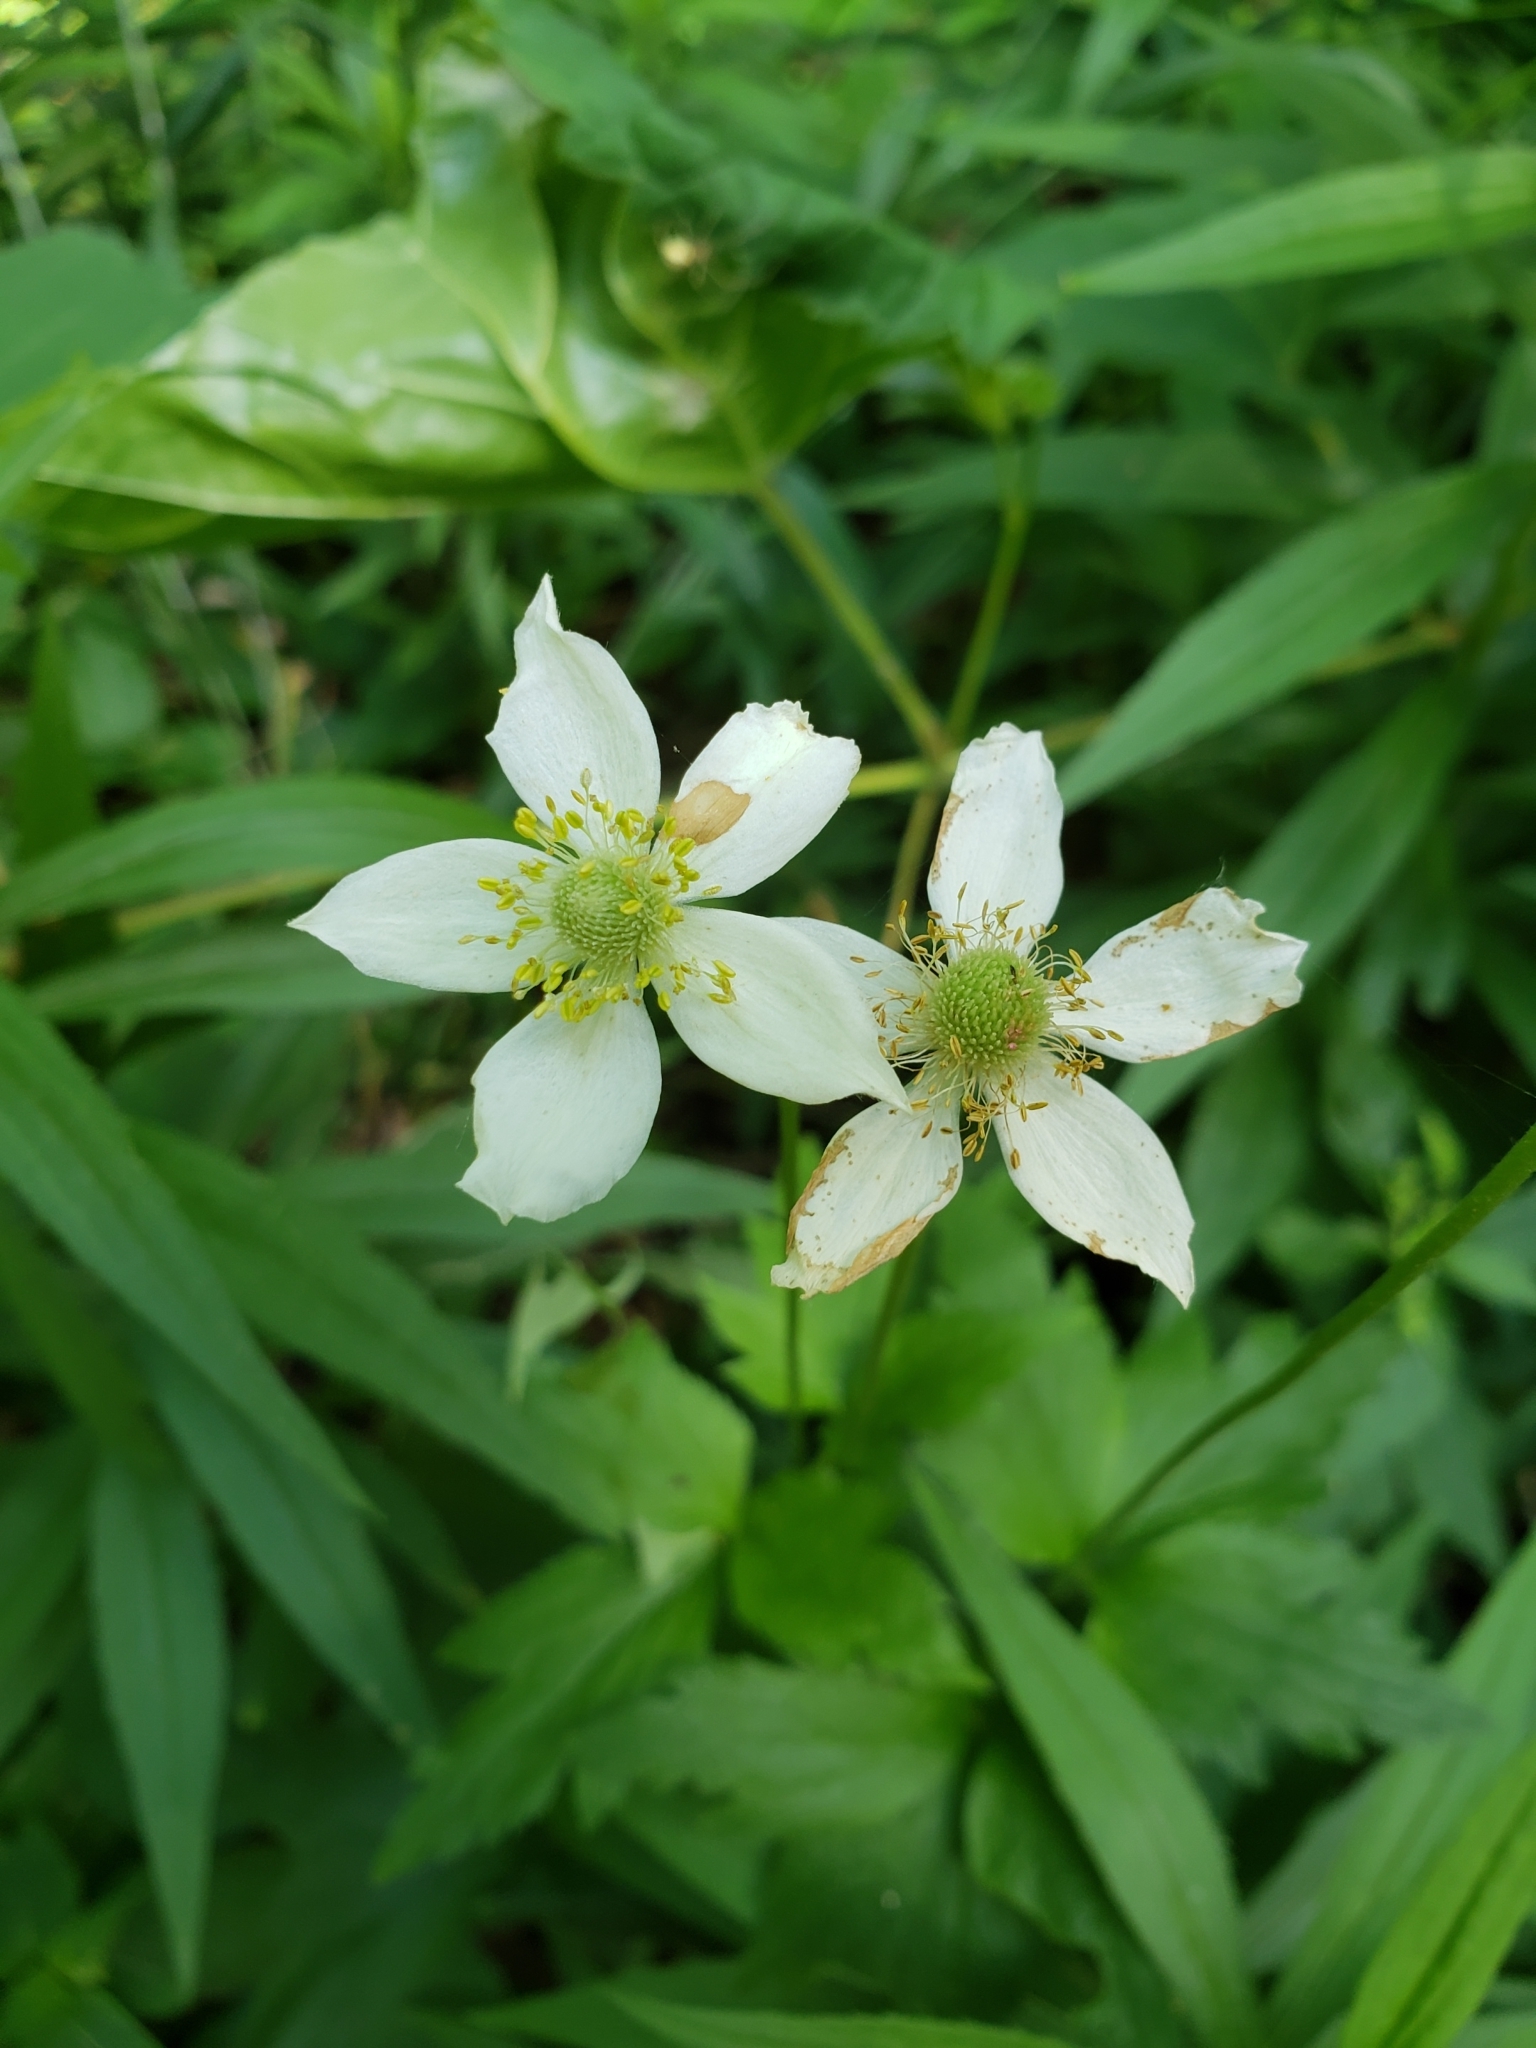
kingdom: Plantae
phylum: Tracheophyta
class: Magnoliopsida
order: Ranunculales
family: Ranunculaceae
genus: Anemone
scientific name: Anemone virginiana
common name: Tall anemone
